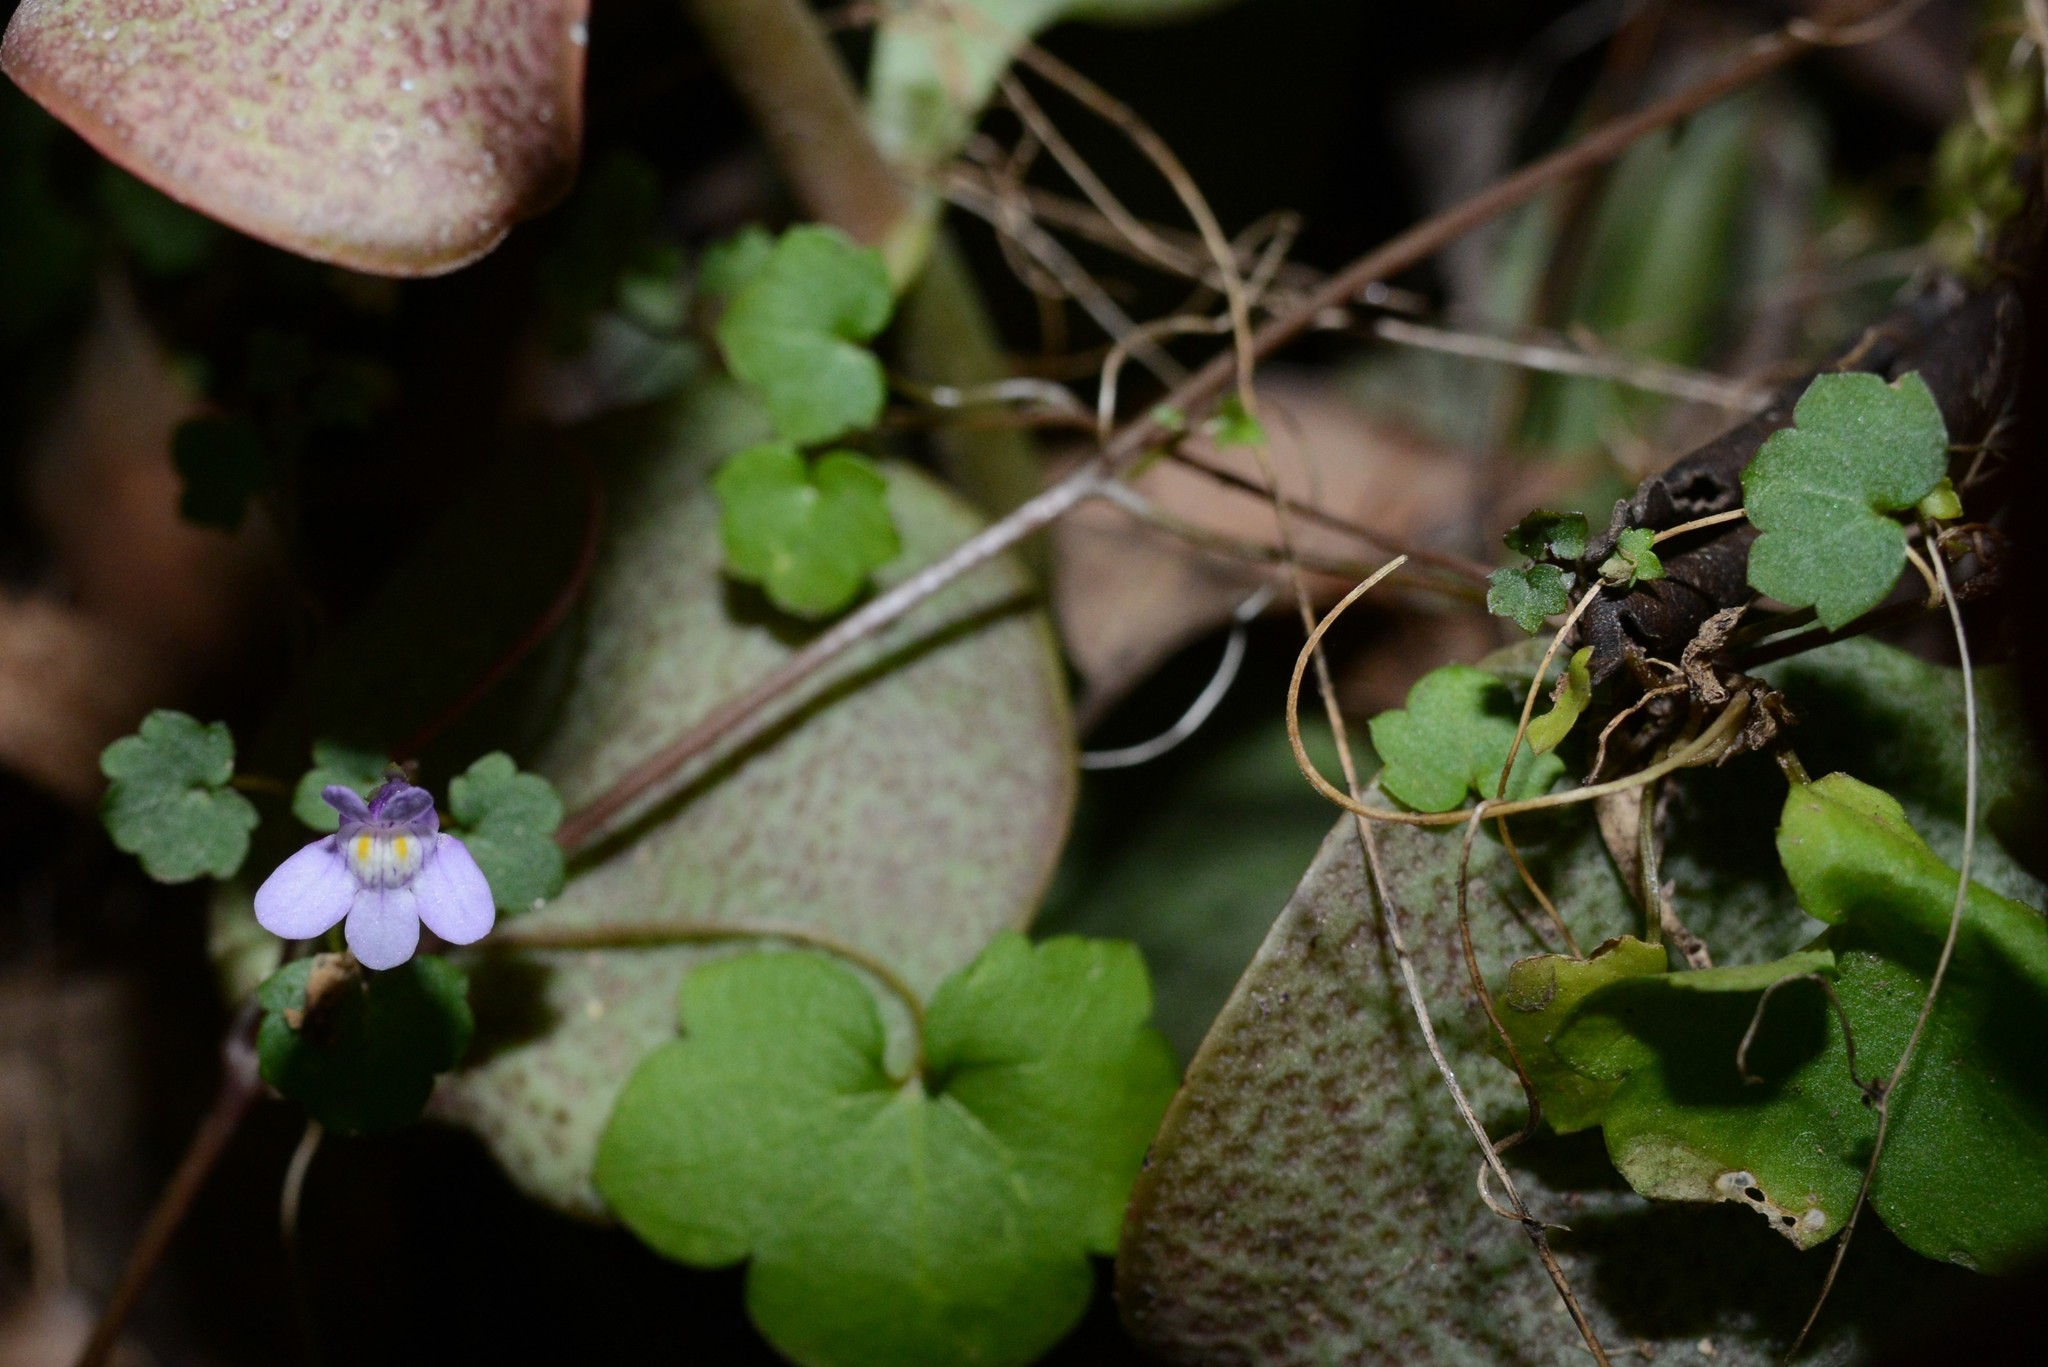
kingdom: Plantae
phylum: Tracheophyta
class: Magnoliopsida
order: Lamiales
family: Plantaginaceae
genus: Cymbalaria
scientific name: Cymbalaria muralis
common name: Ivy-leaved toadflax
